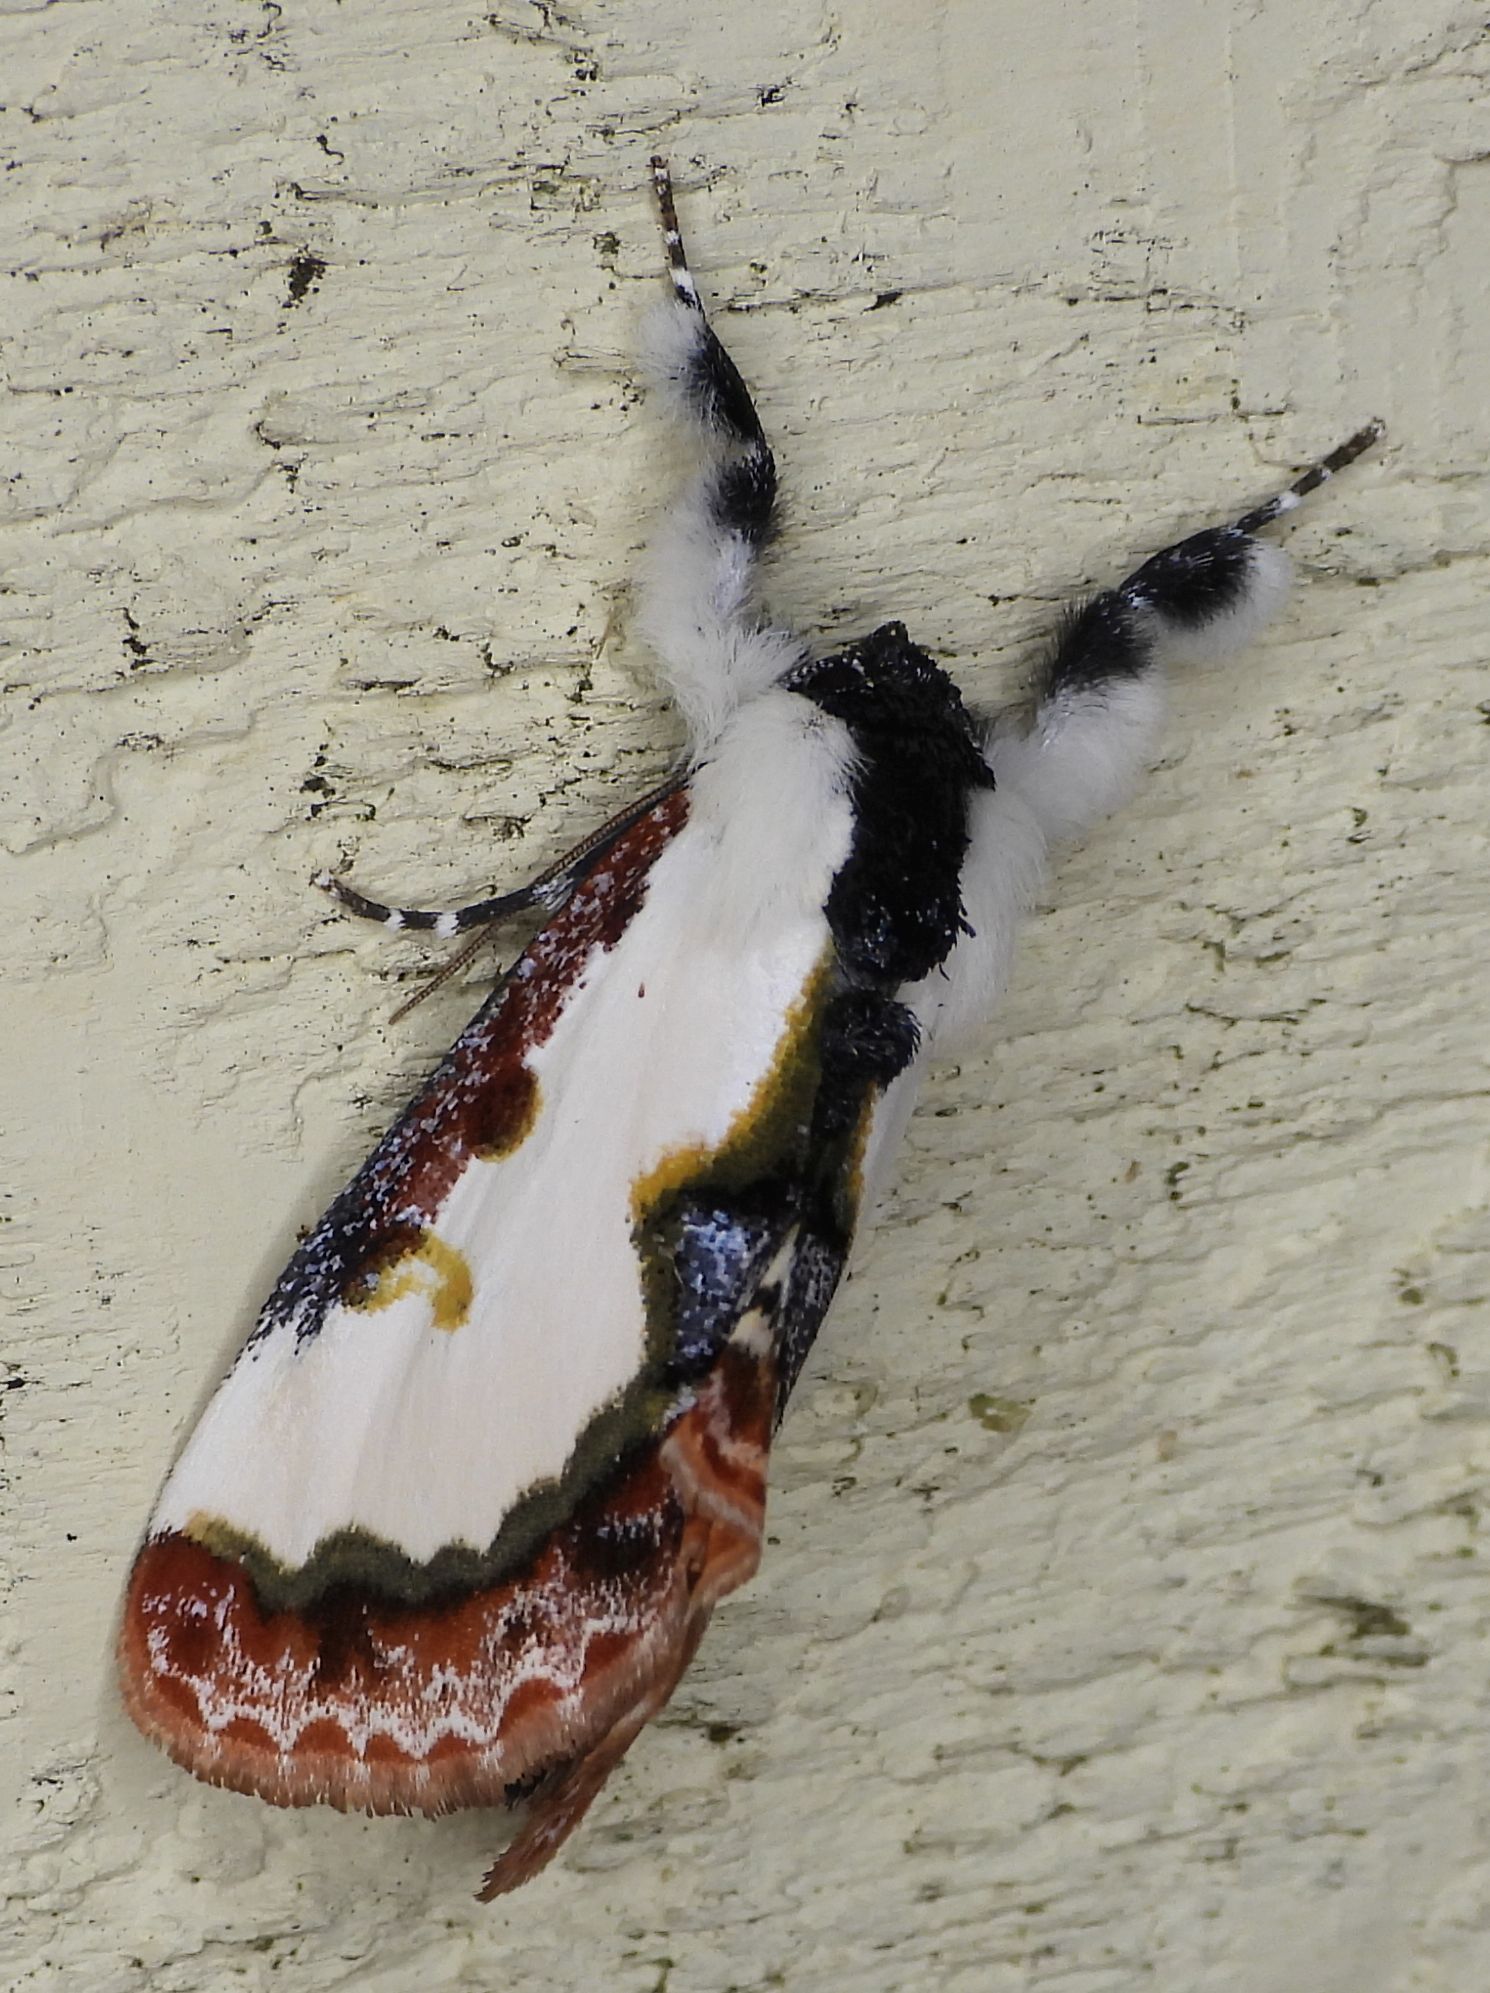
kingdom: Animalia
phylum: Arthropoda
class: Insecta
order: Lepidoptera
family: Noctuidae
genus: Eudryas
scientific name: Eudryas unio
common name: Pearly wood-nymph
